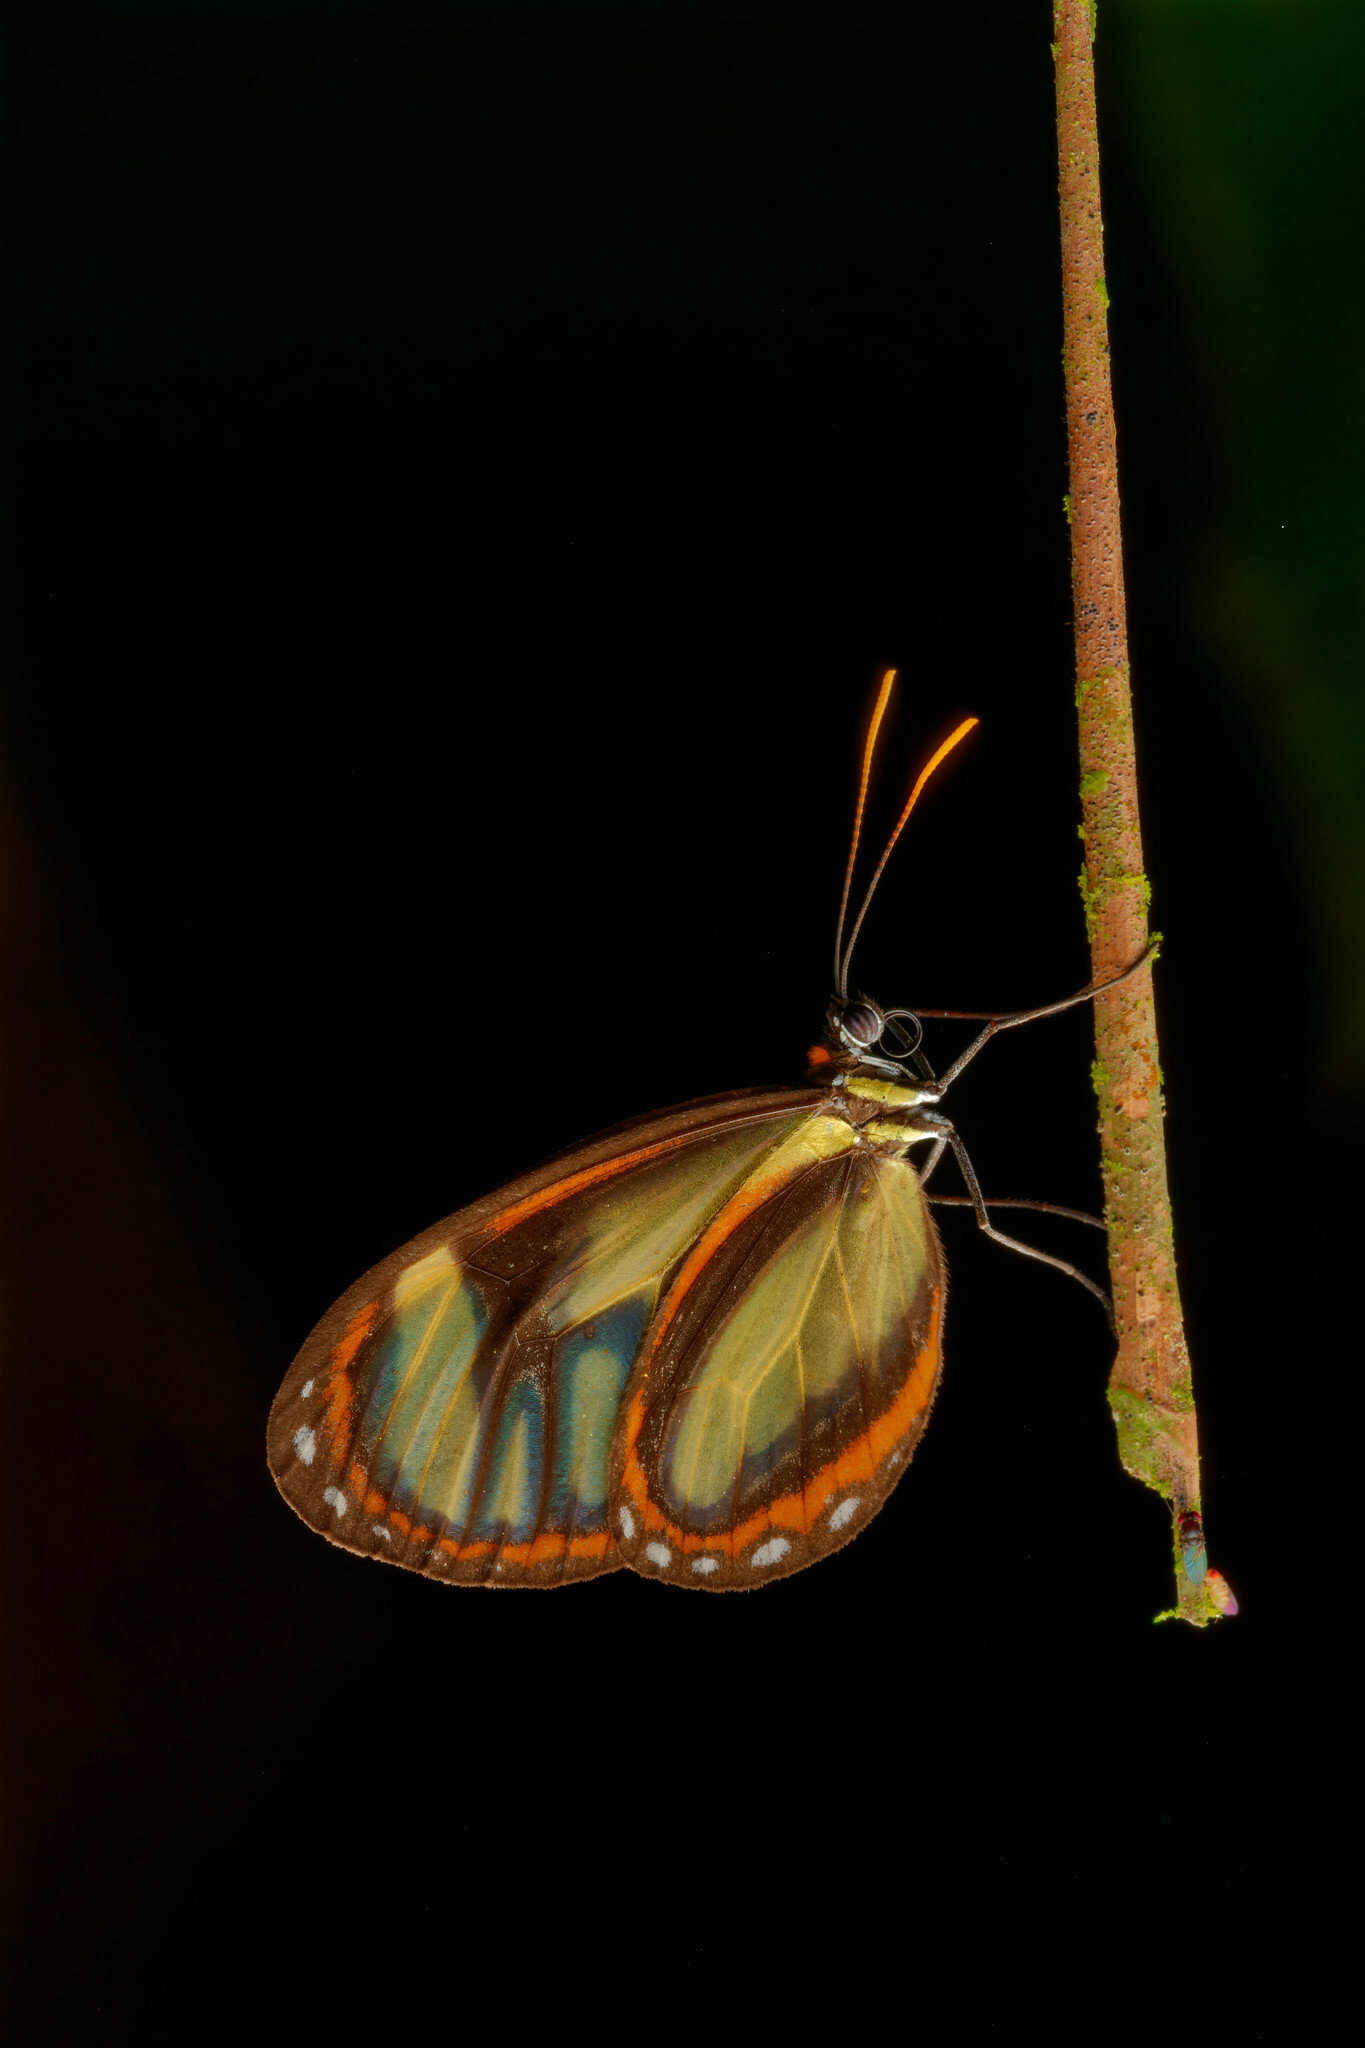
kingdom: Animalia
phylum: Arthropoda
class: Insecta
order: Lepidoptera
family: Nymphalidae
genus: Ithomia
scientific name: Ithomia salapia
